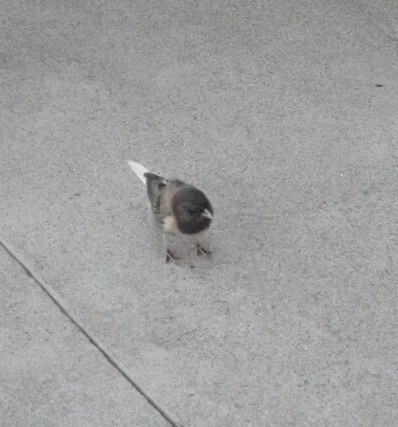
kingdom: Animalia
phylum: Chordata
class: Aves
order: Passeriformes
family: Passerellidae
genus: Junco
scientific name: Junco hyemalis
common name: Dark-eyed junco
